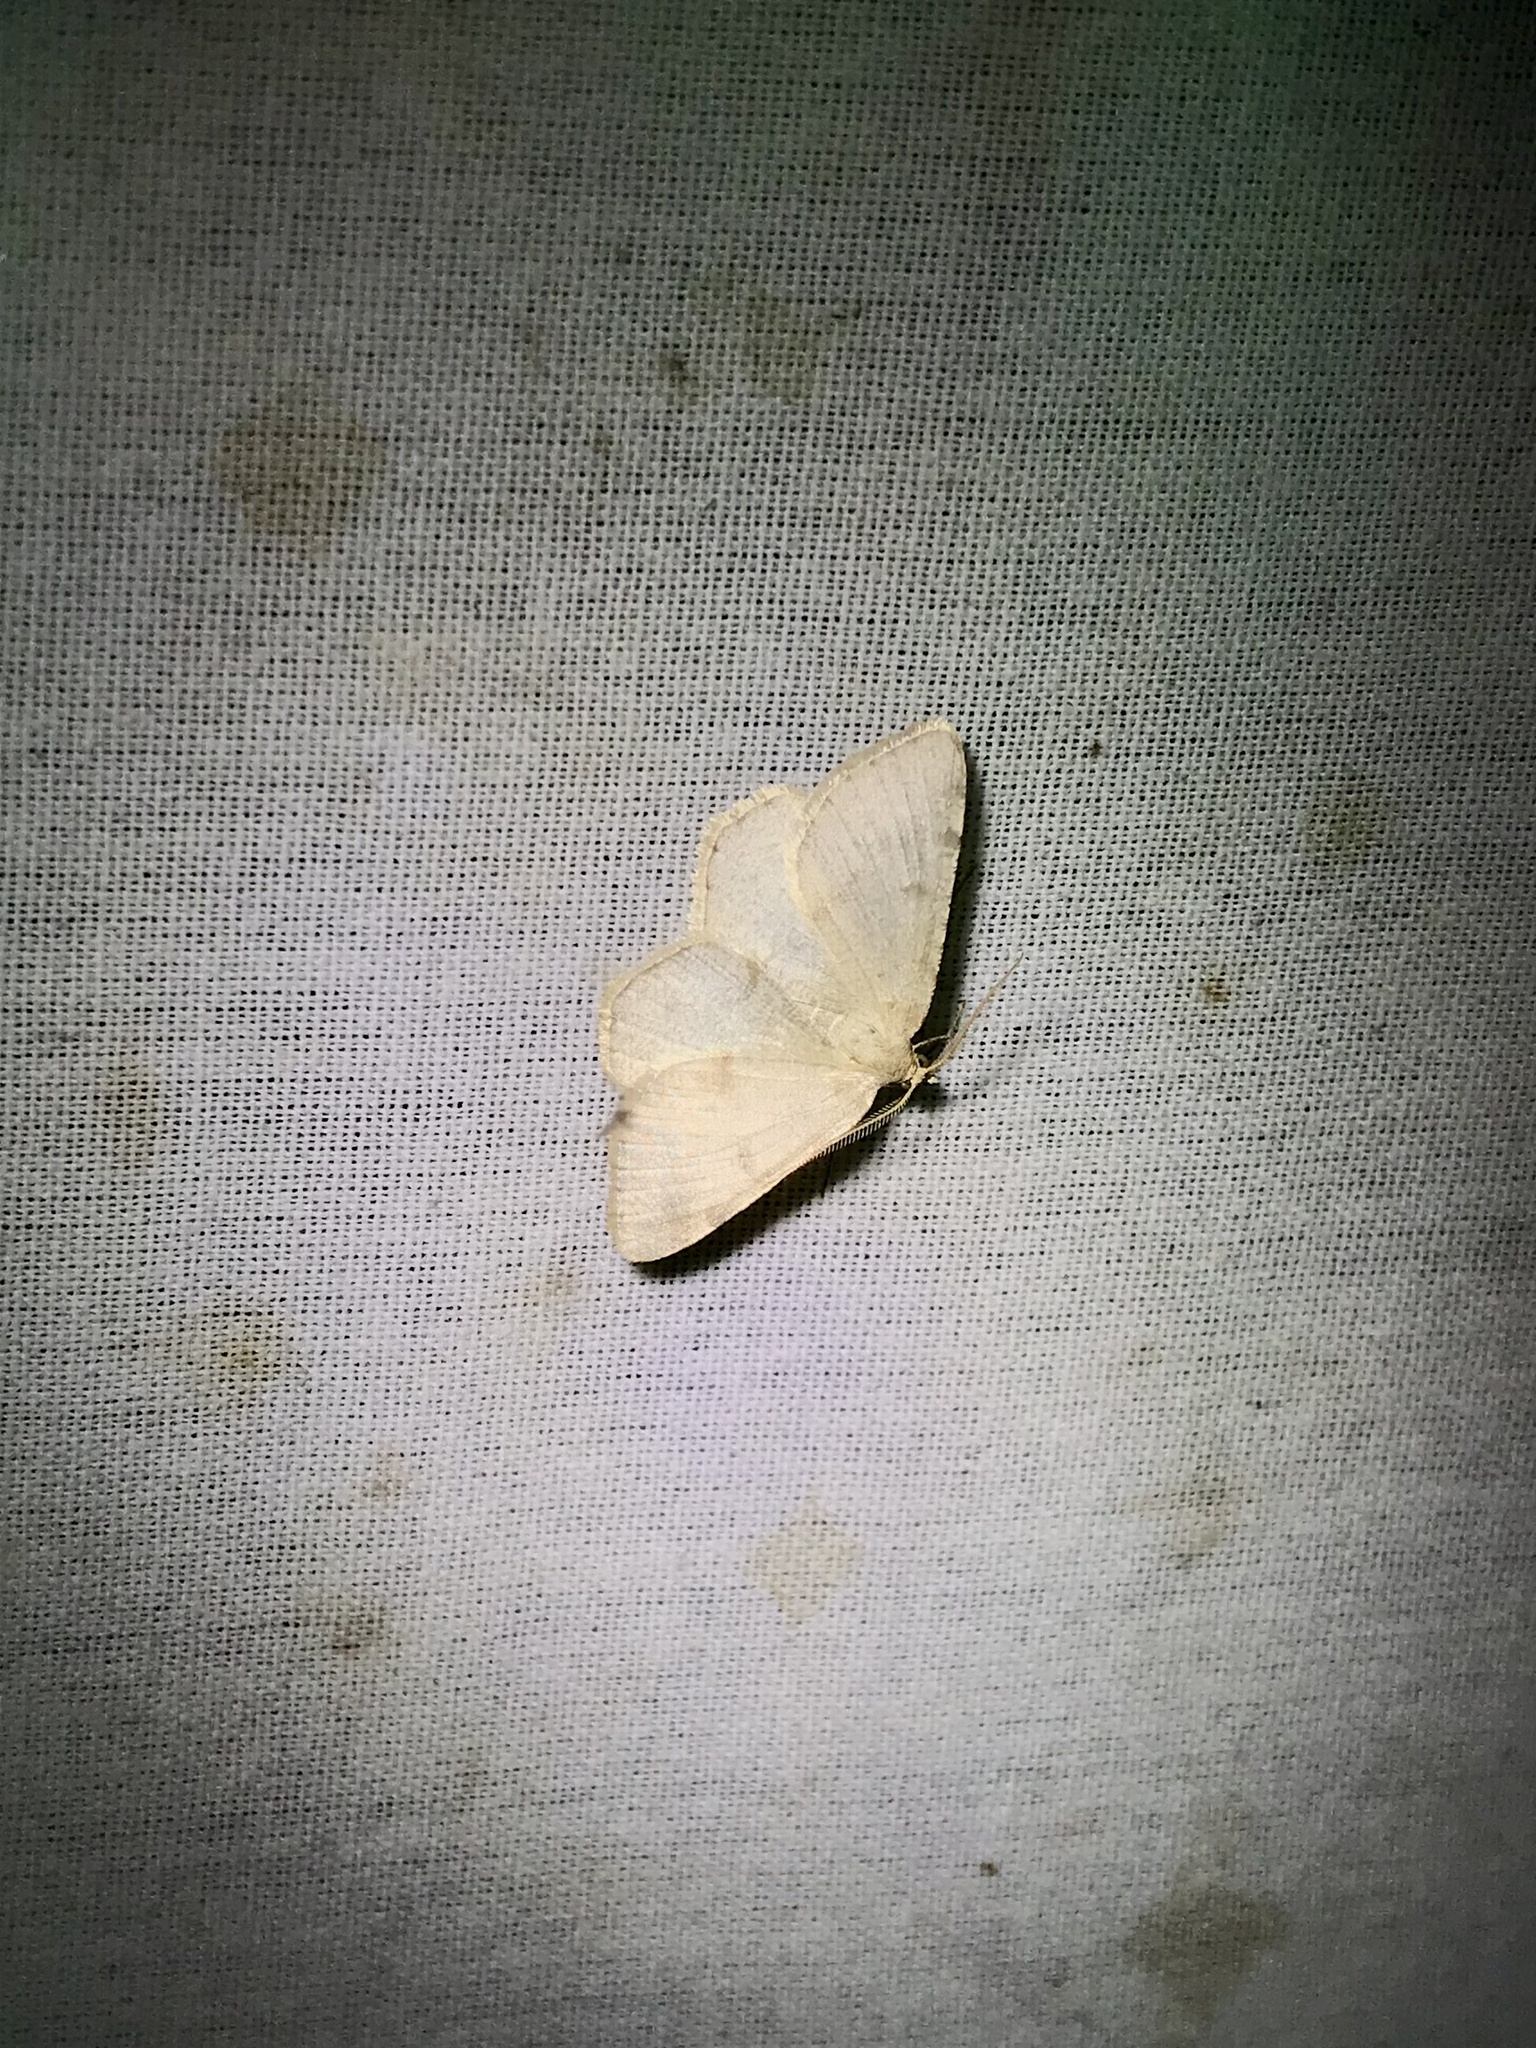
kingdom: Animalia
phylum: Arthropoda
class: Insecta
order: Lepidoptera
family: Geometridae
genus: Macaria
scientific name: Macaria sulphurea
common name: Sulphur angle
